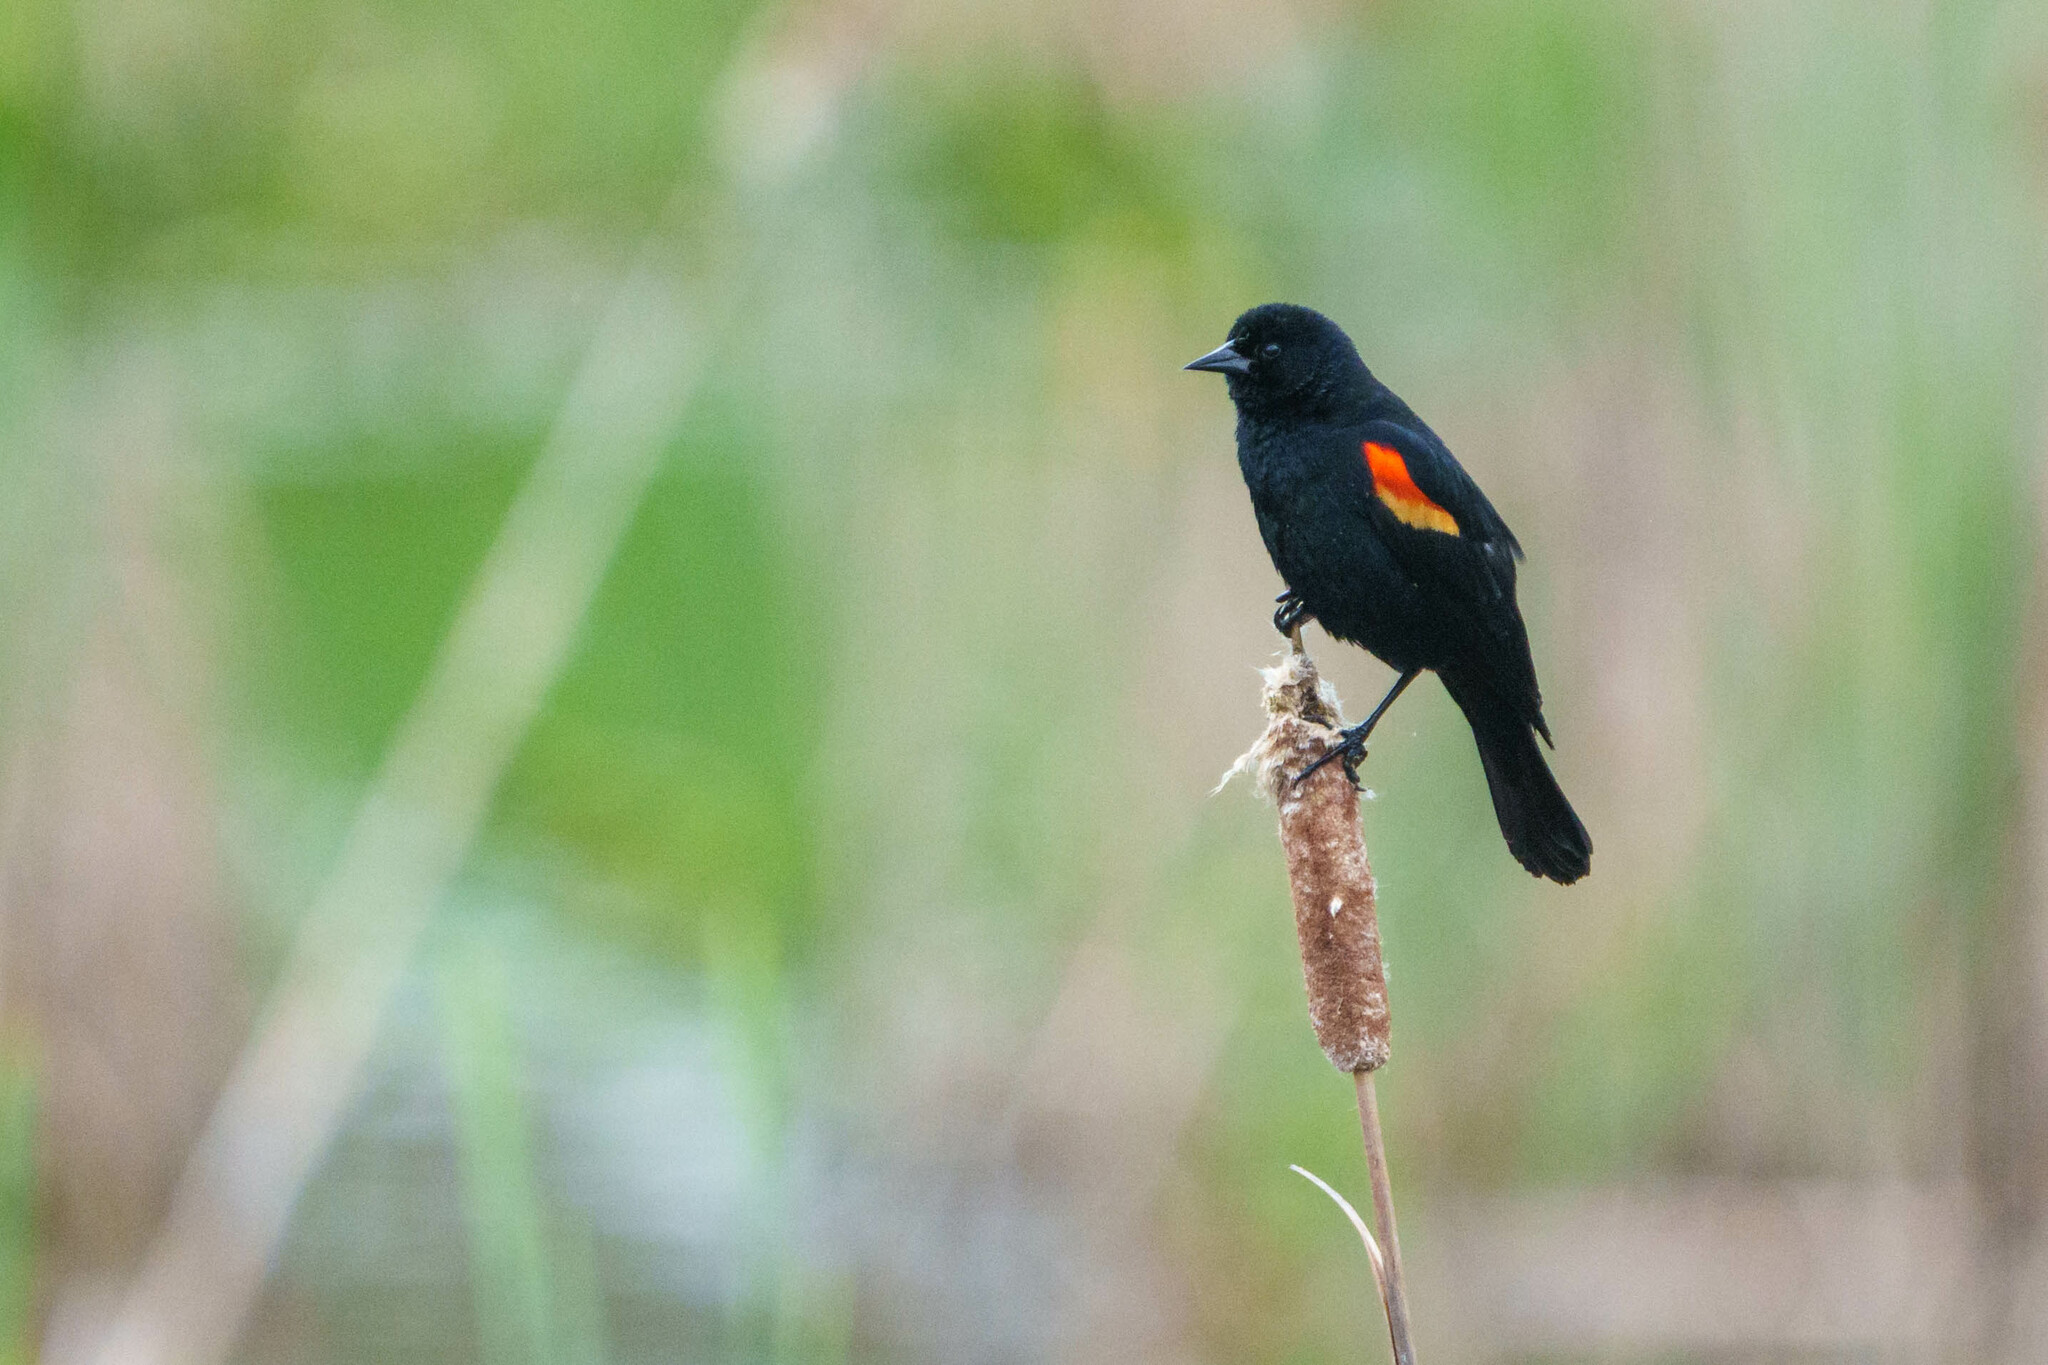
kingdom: Animalia
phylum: Chordata
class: Aves
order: Passeriformes
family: Icteridae
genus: Agelaius
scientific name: Agelaius phoeniceus
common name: Red-winged blackbird
